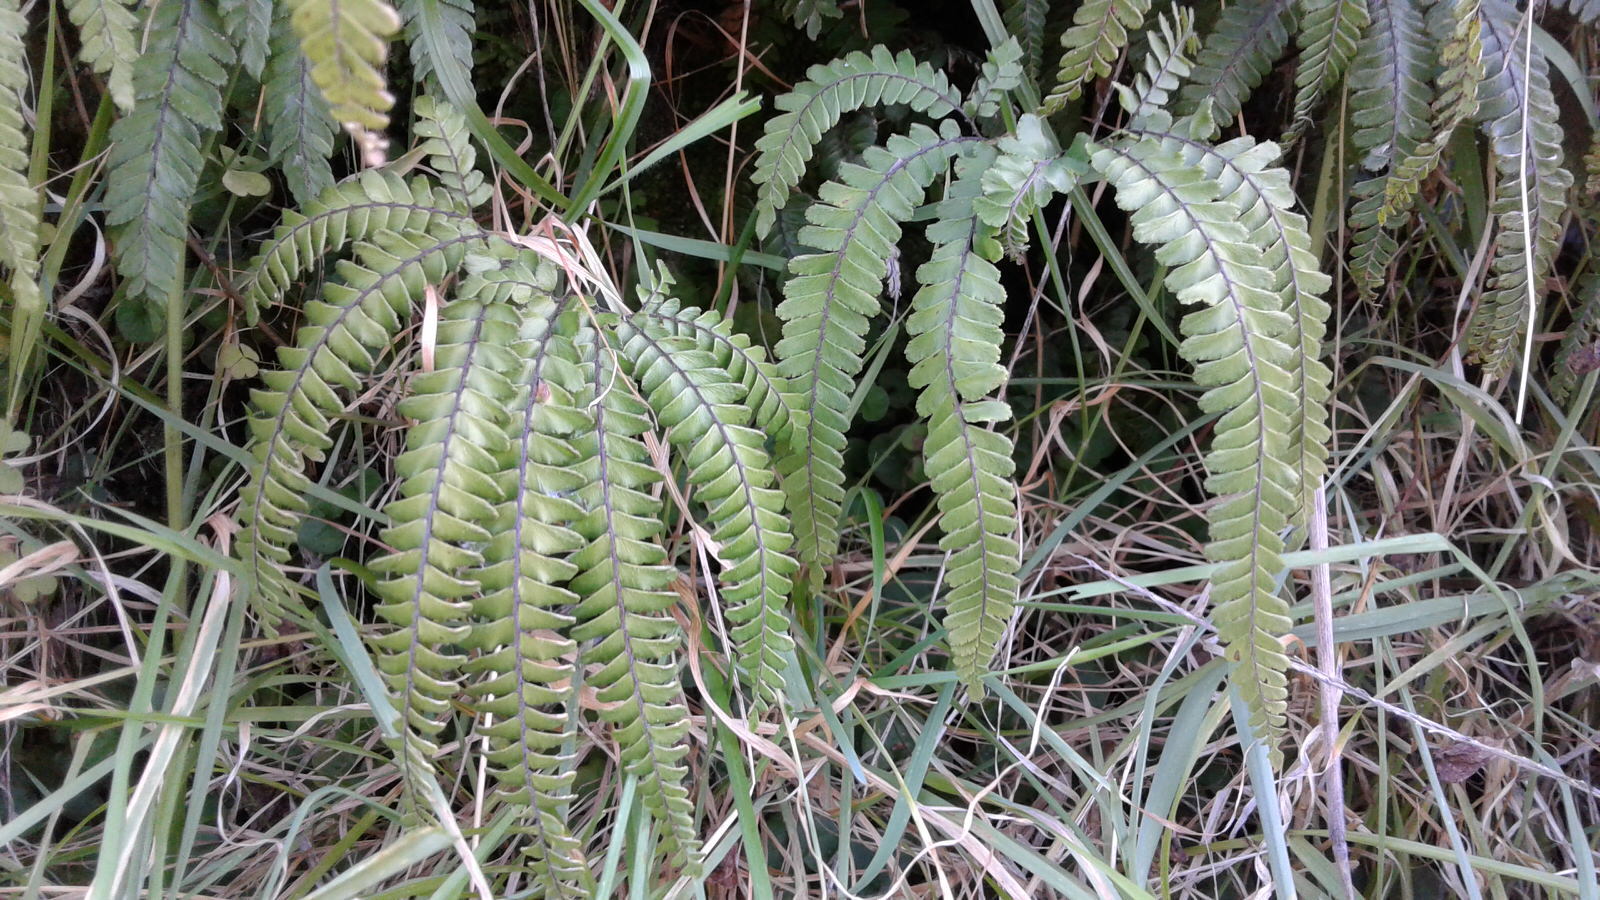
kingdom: Plantae
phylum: Tracheophyta
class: Polypodiopsida
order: Polypodiales
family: Pteridaceae
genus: Adiantum
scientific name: Adiantum hispidulum
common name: Rough maidenhair
